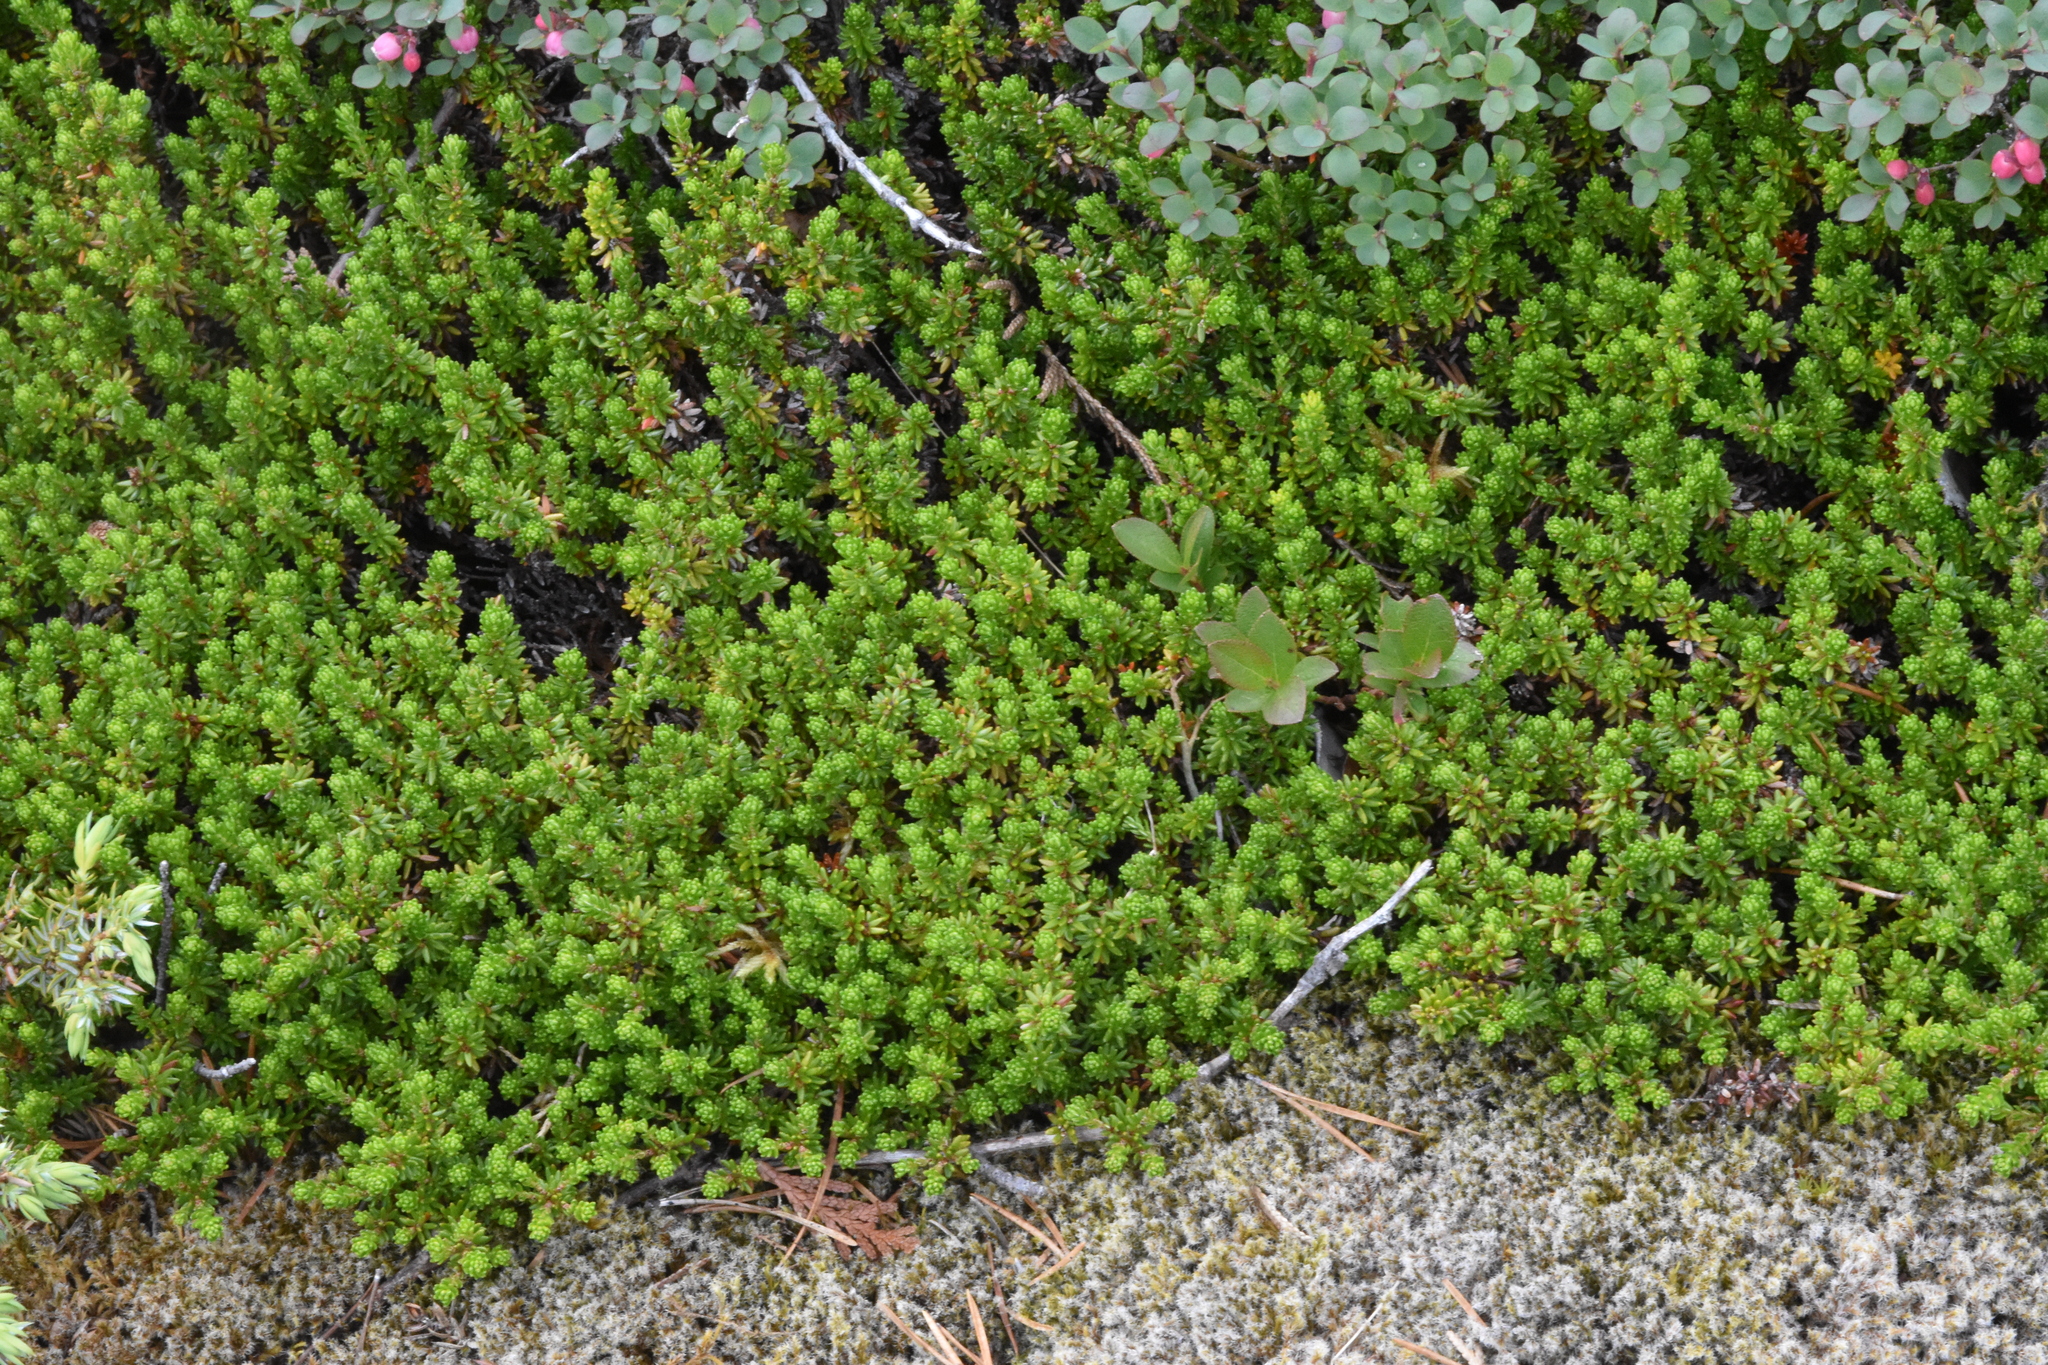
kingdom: Plantae
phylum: Tracheophyta
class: Magnoliopsida
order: Ericales
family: Ericaceae
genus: Empetrum
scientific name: Empetrum nigrum
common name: Black crowberry
